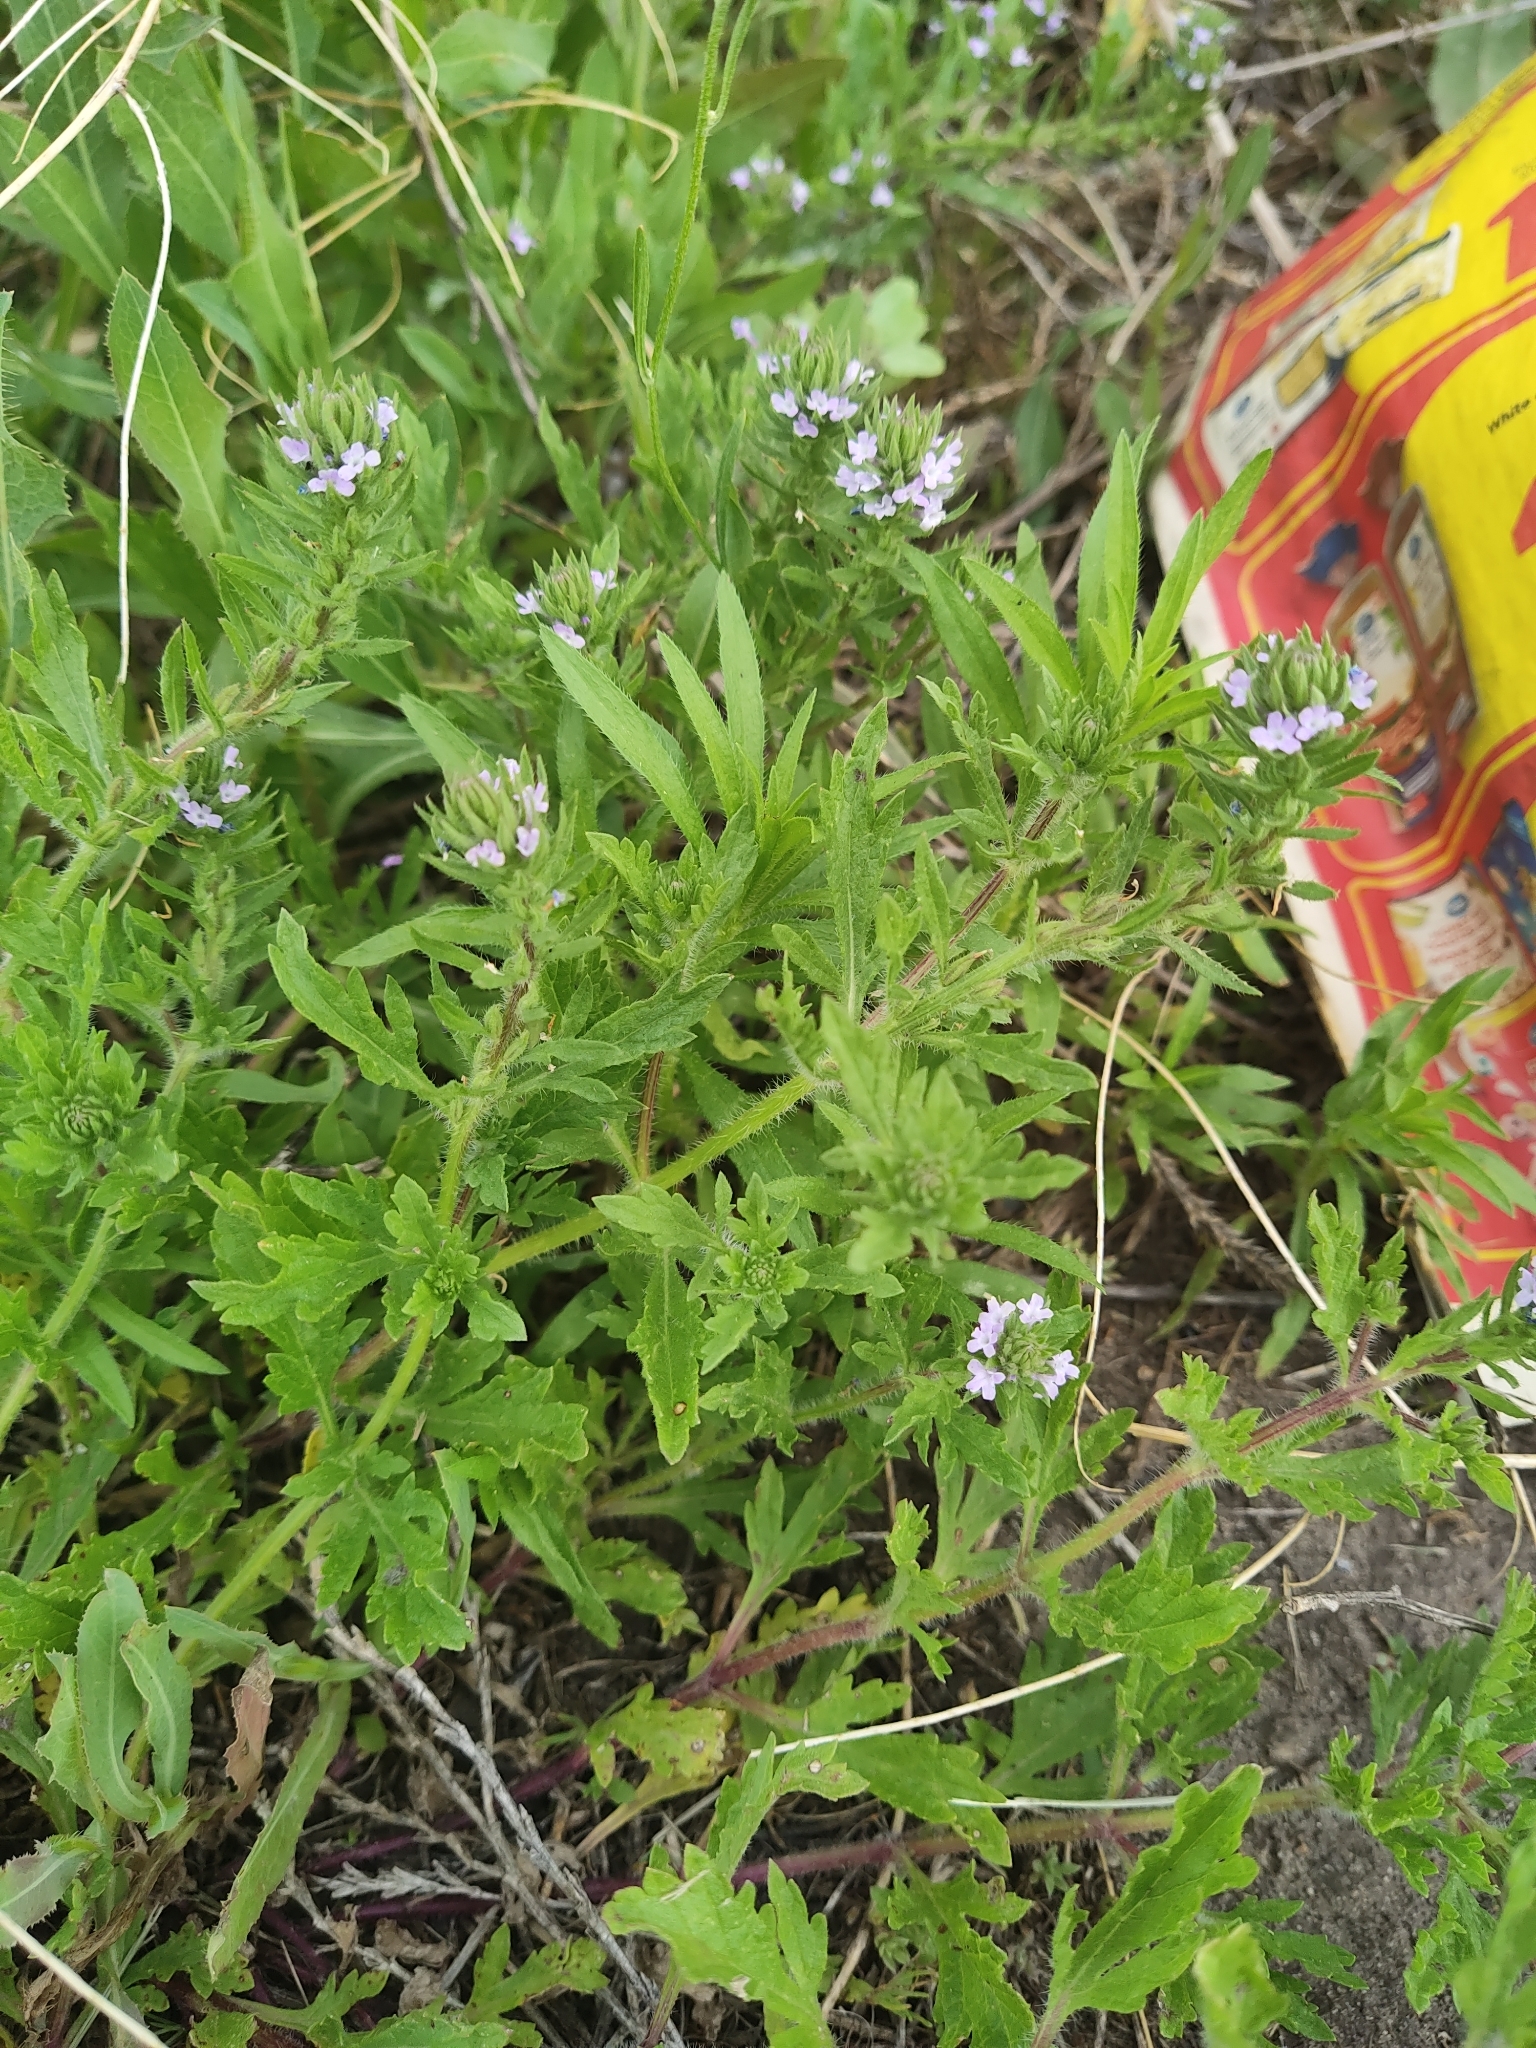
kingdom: Plantae
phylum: Tracheophyta
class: Magnoliopsida
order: Lamiales
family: Verbenaceae
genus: Verbena
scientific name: Verbena bracteata
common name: Bracted vervain
